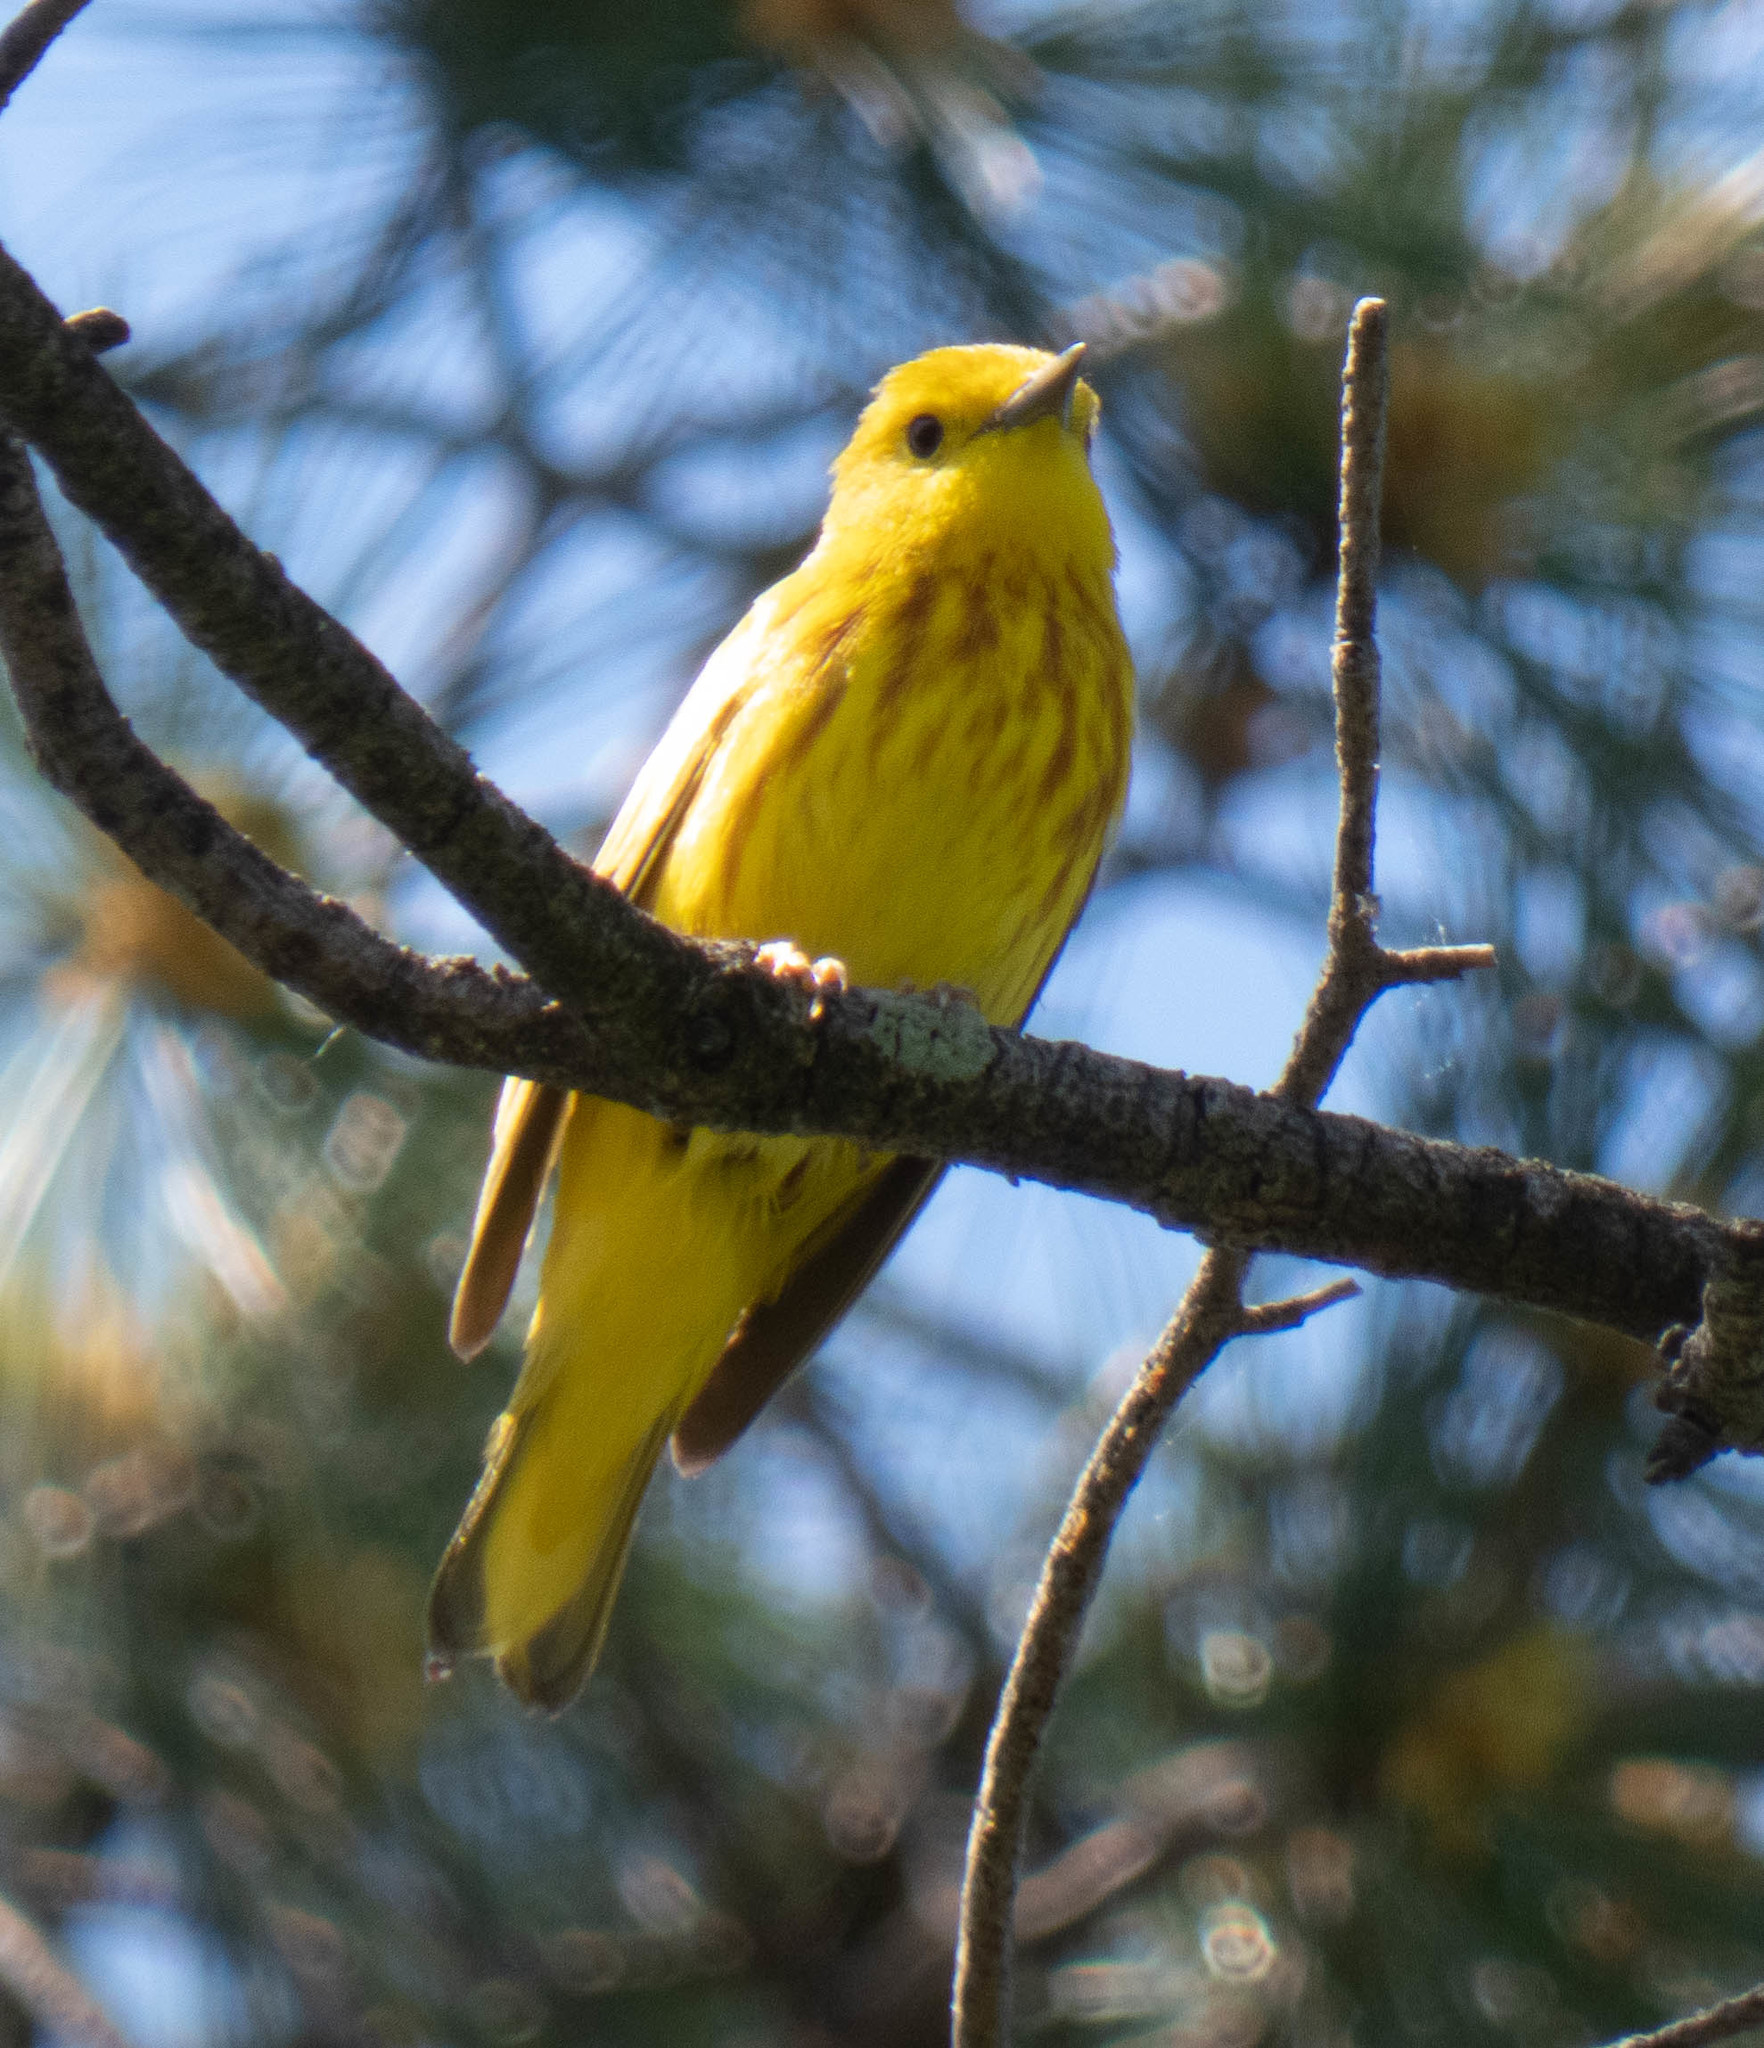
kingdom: Animalia
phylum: Chordata
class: Aves
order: Passeriformes
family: Parulidae
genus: Setophaga
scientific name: Setophaga petechia
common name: Yellow warbler
